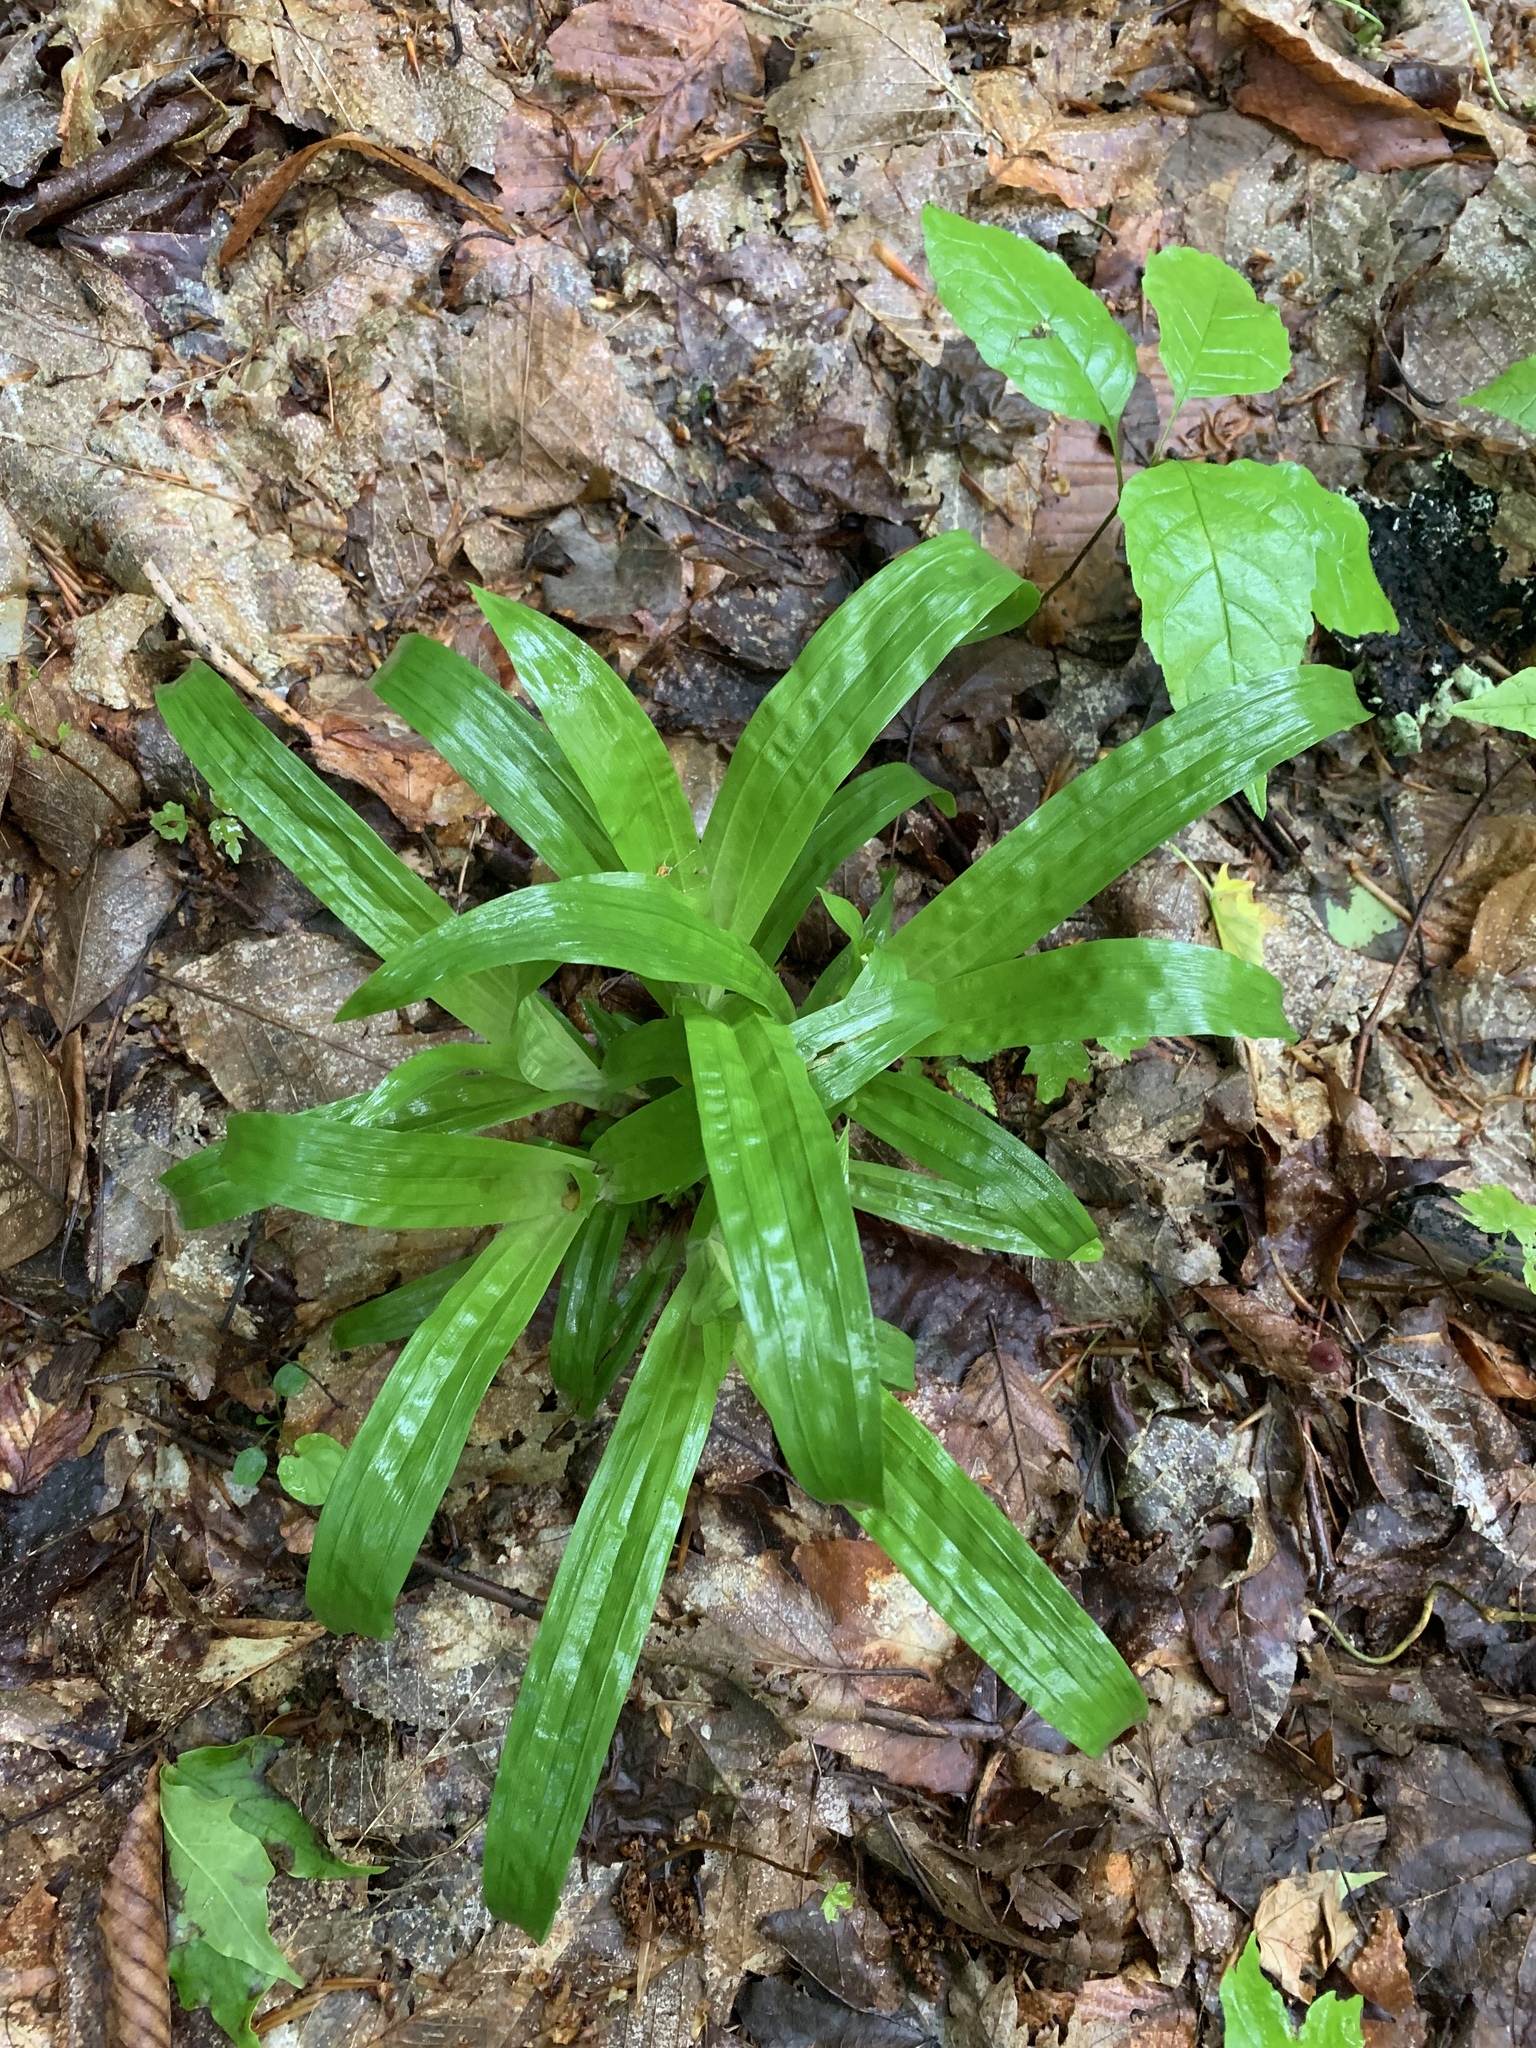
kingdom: Plantae
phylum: Tracheophyta
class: Liliopsida
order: Poales
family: Cyperaceae
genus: Carex
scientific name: Carex plantaginea
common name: Plantain-leaved sedge
